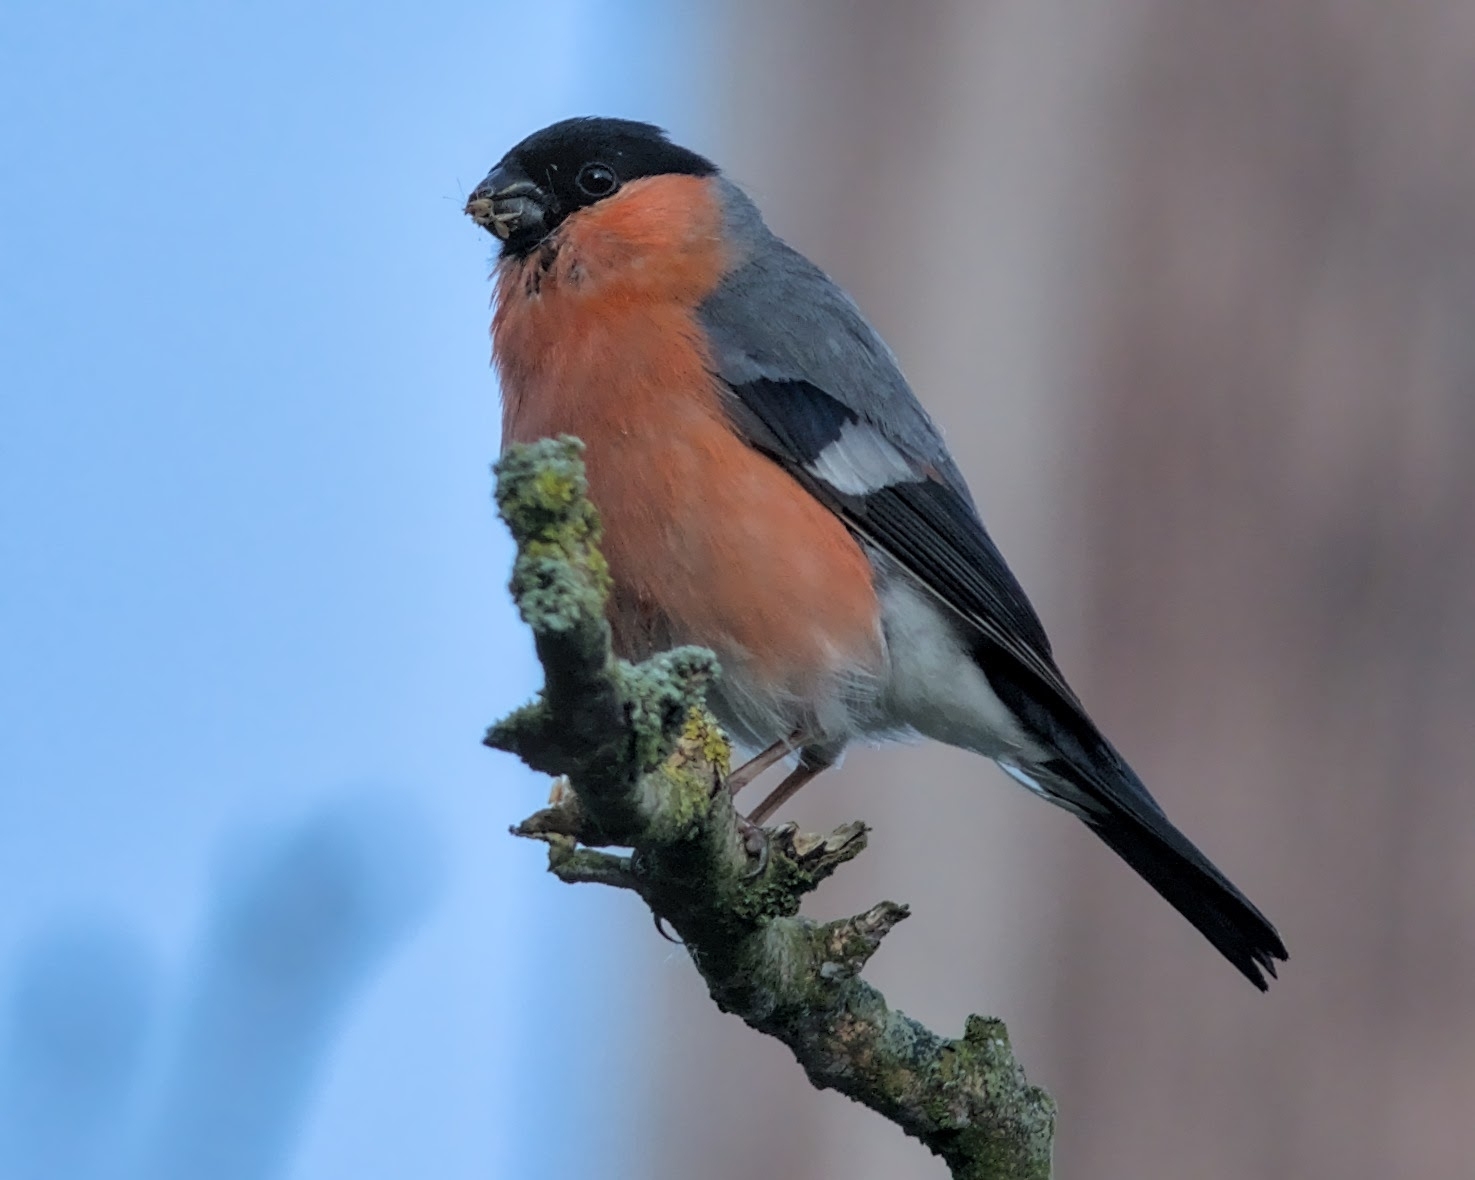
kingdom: Animalia
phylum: Chordata
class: Aves
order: Passeriformes
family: Fringillidae
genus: Pyrrhula
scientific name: Pyrrhula pyrrhula
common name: Eurasian bullfinch
